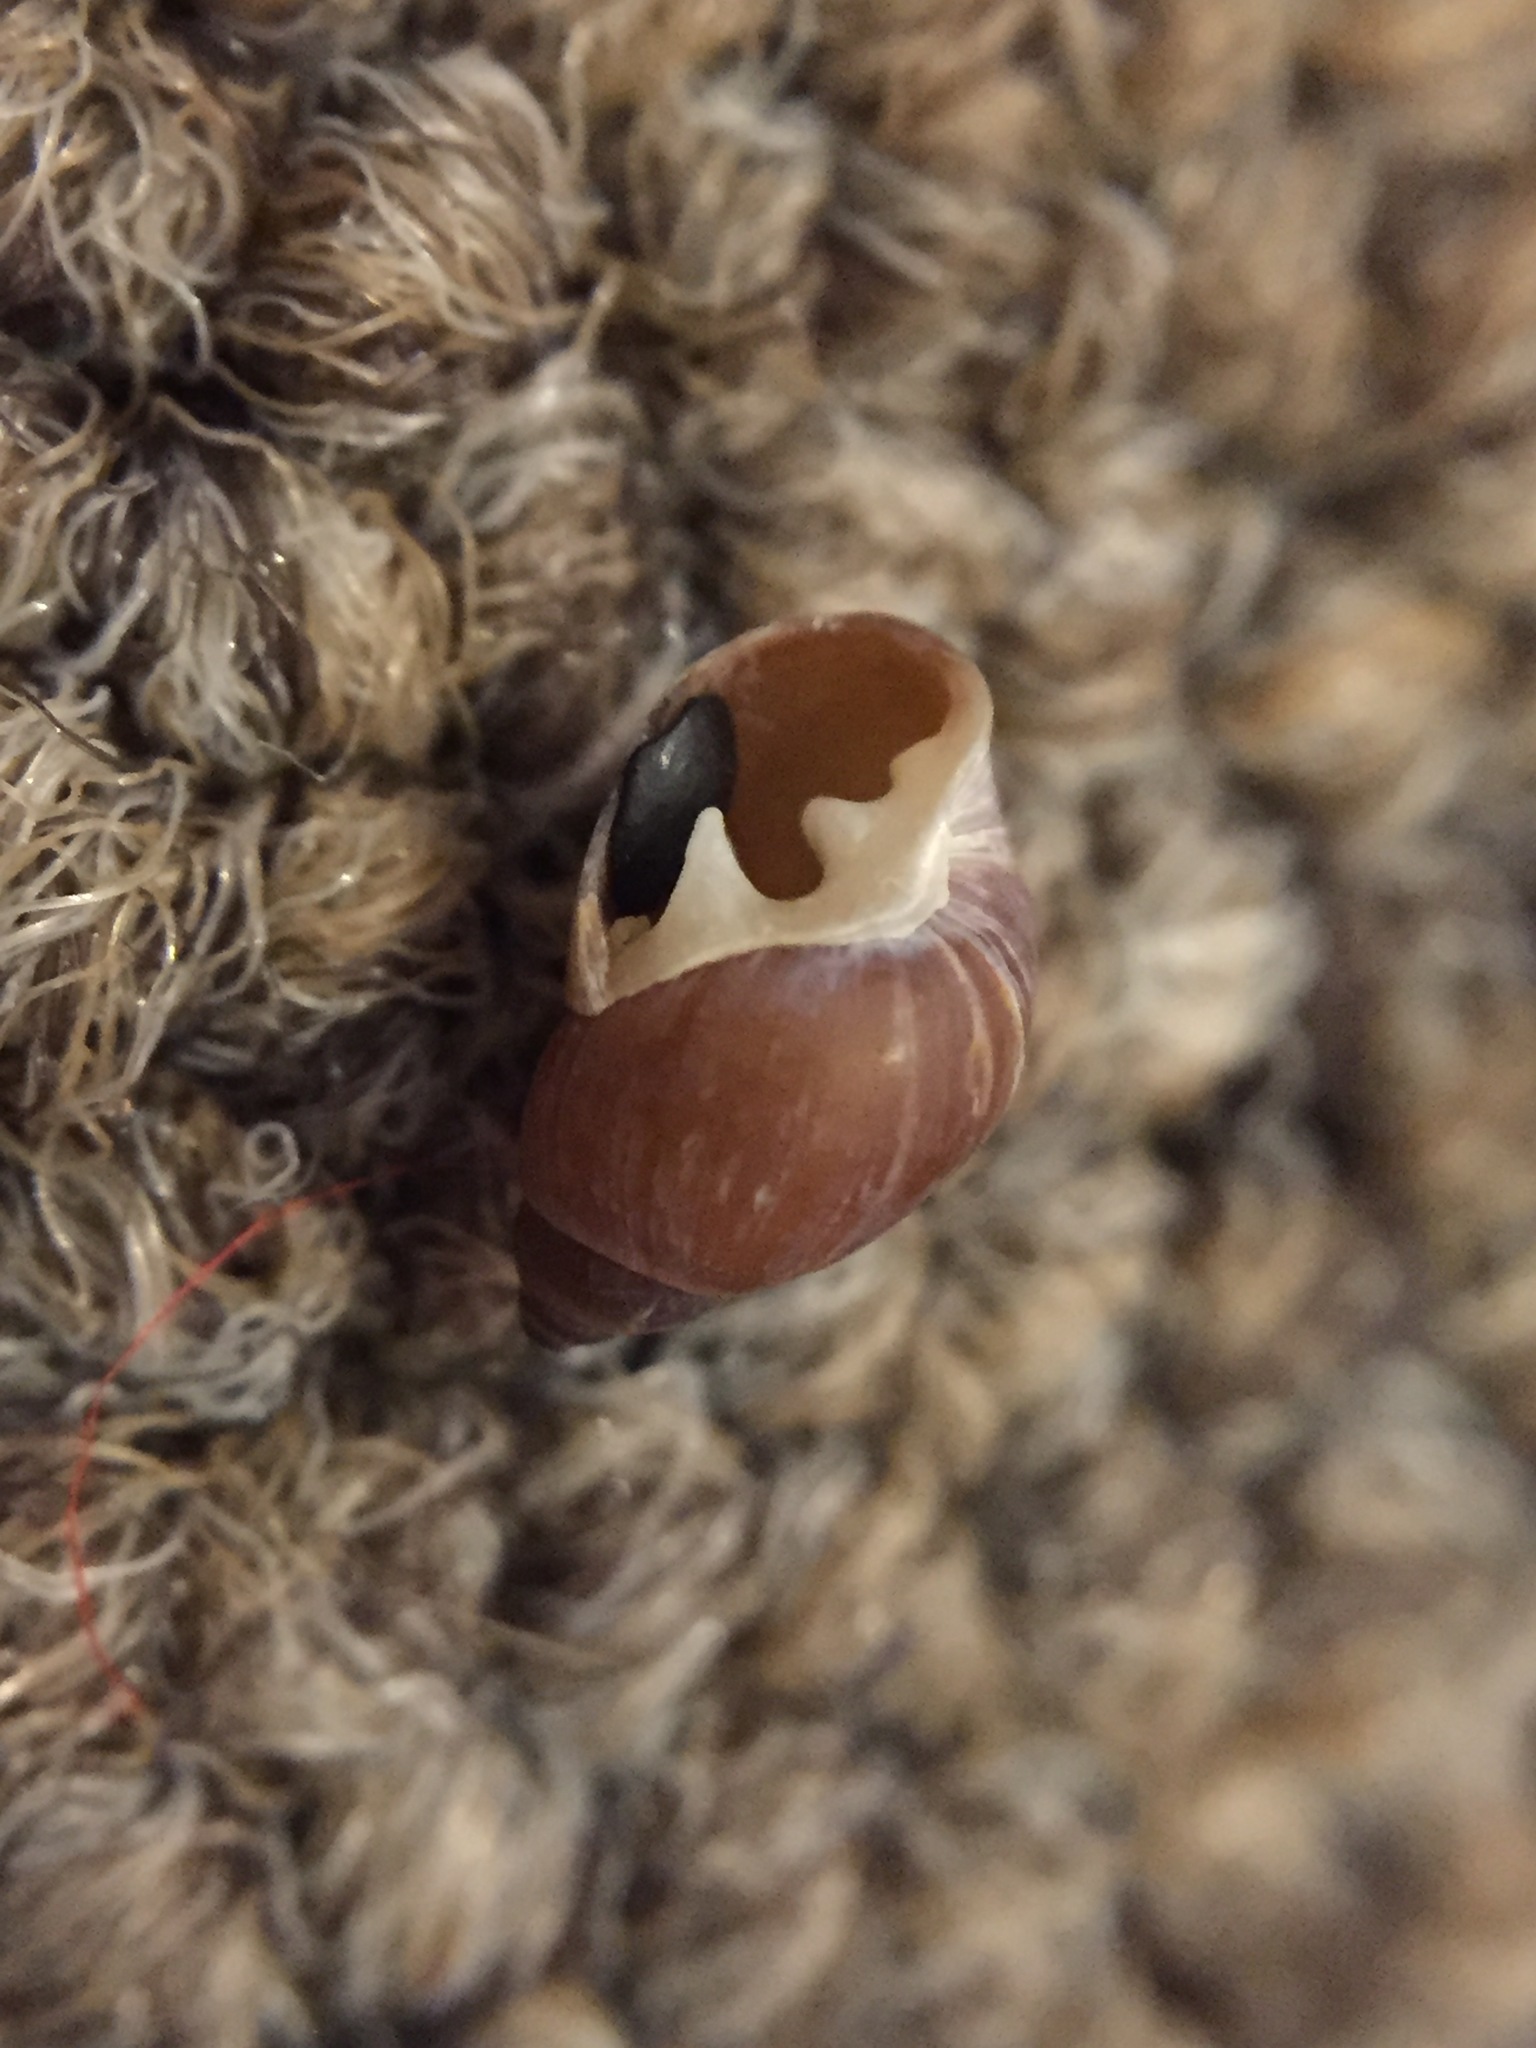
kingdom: Animalia
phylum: Mollusca
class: Gastropoda
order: Ellobiida
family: Ellobiidae
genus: Marinula
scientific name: Marinula filholi
